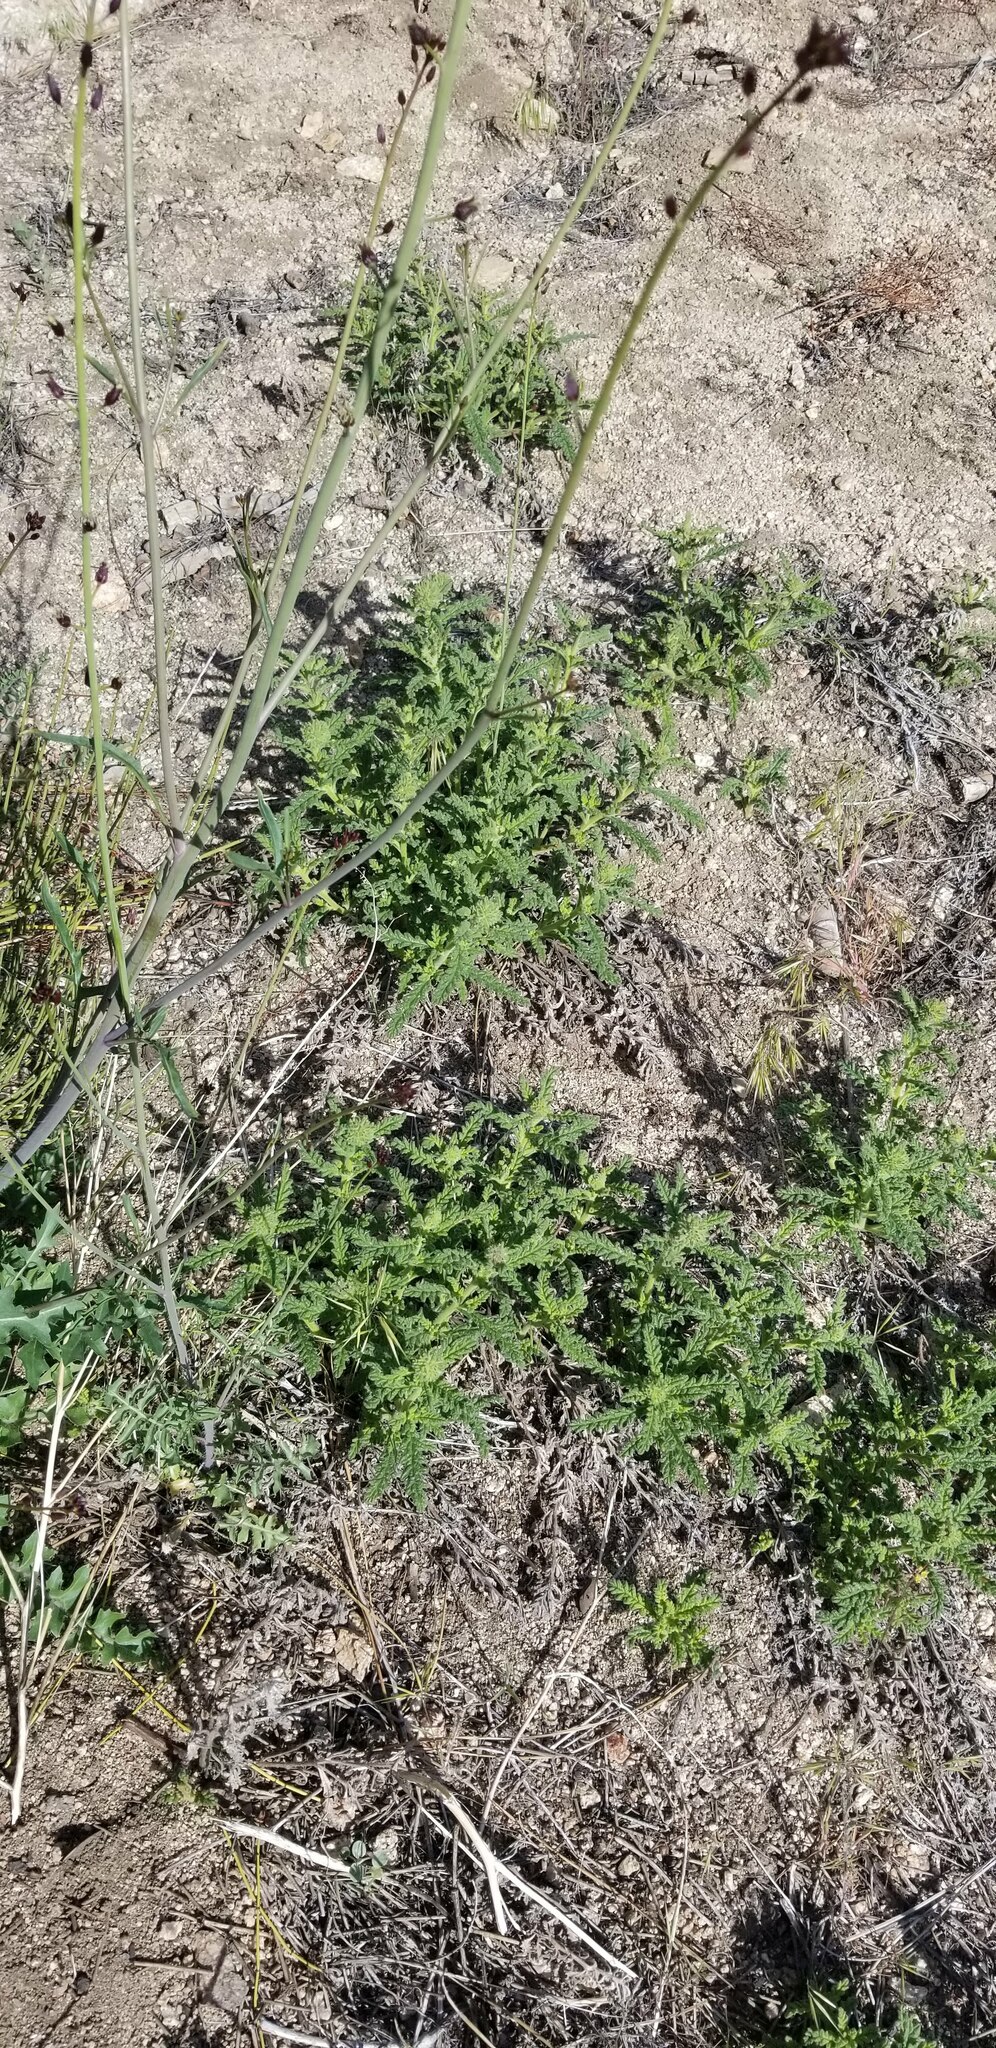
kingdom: Plantae
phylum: Tracheophyta
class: Magnoliopsida
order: Boraginales
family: Namaceae
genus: Nama
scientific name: Nama rothrockii
